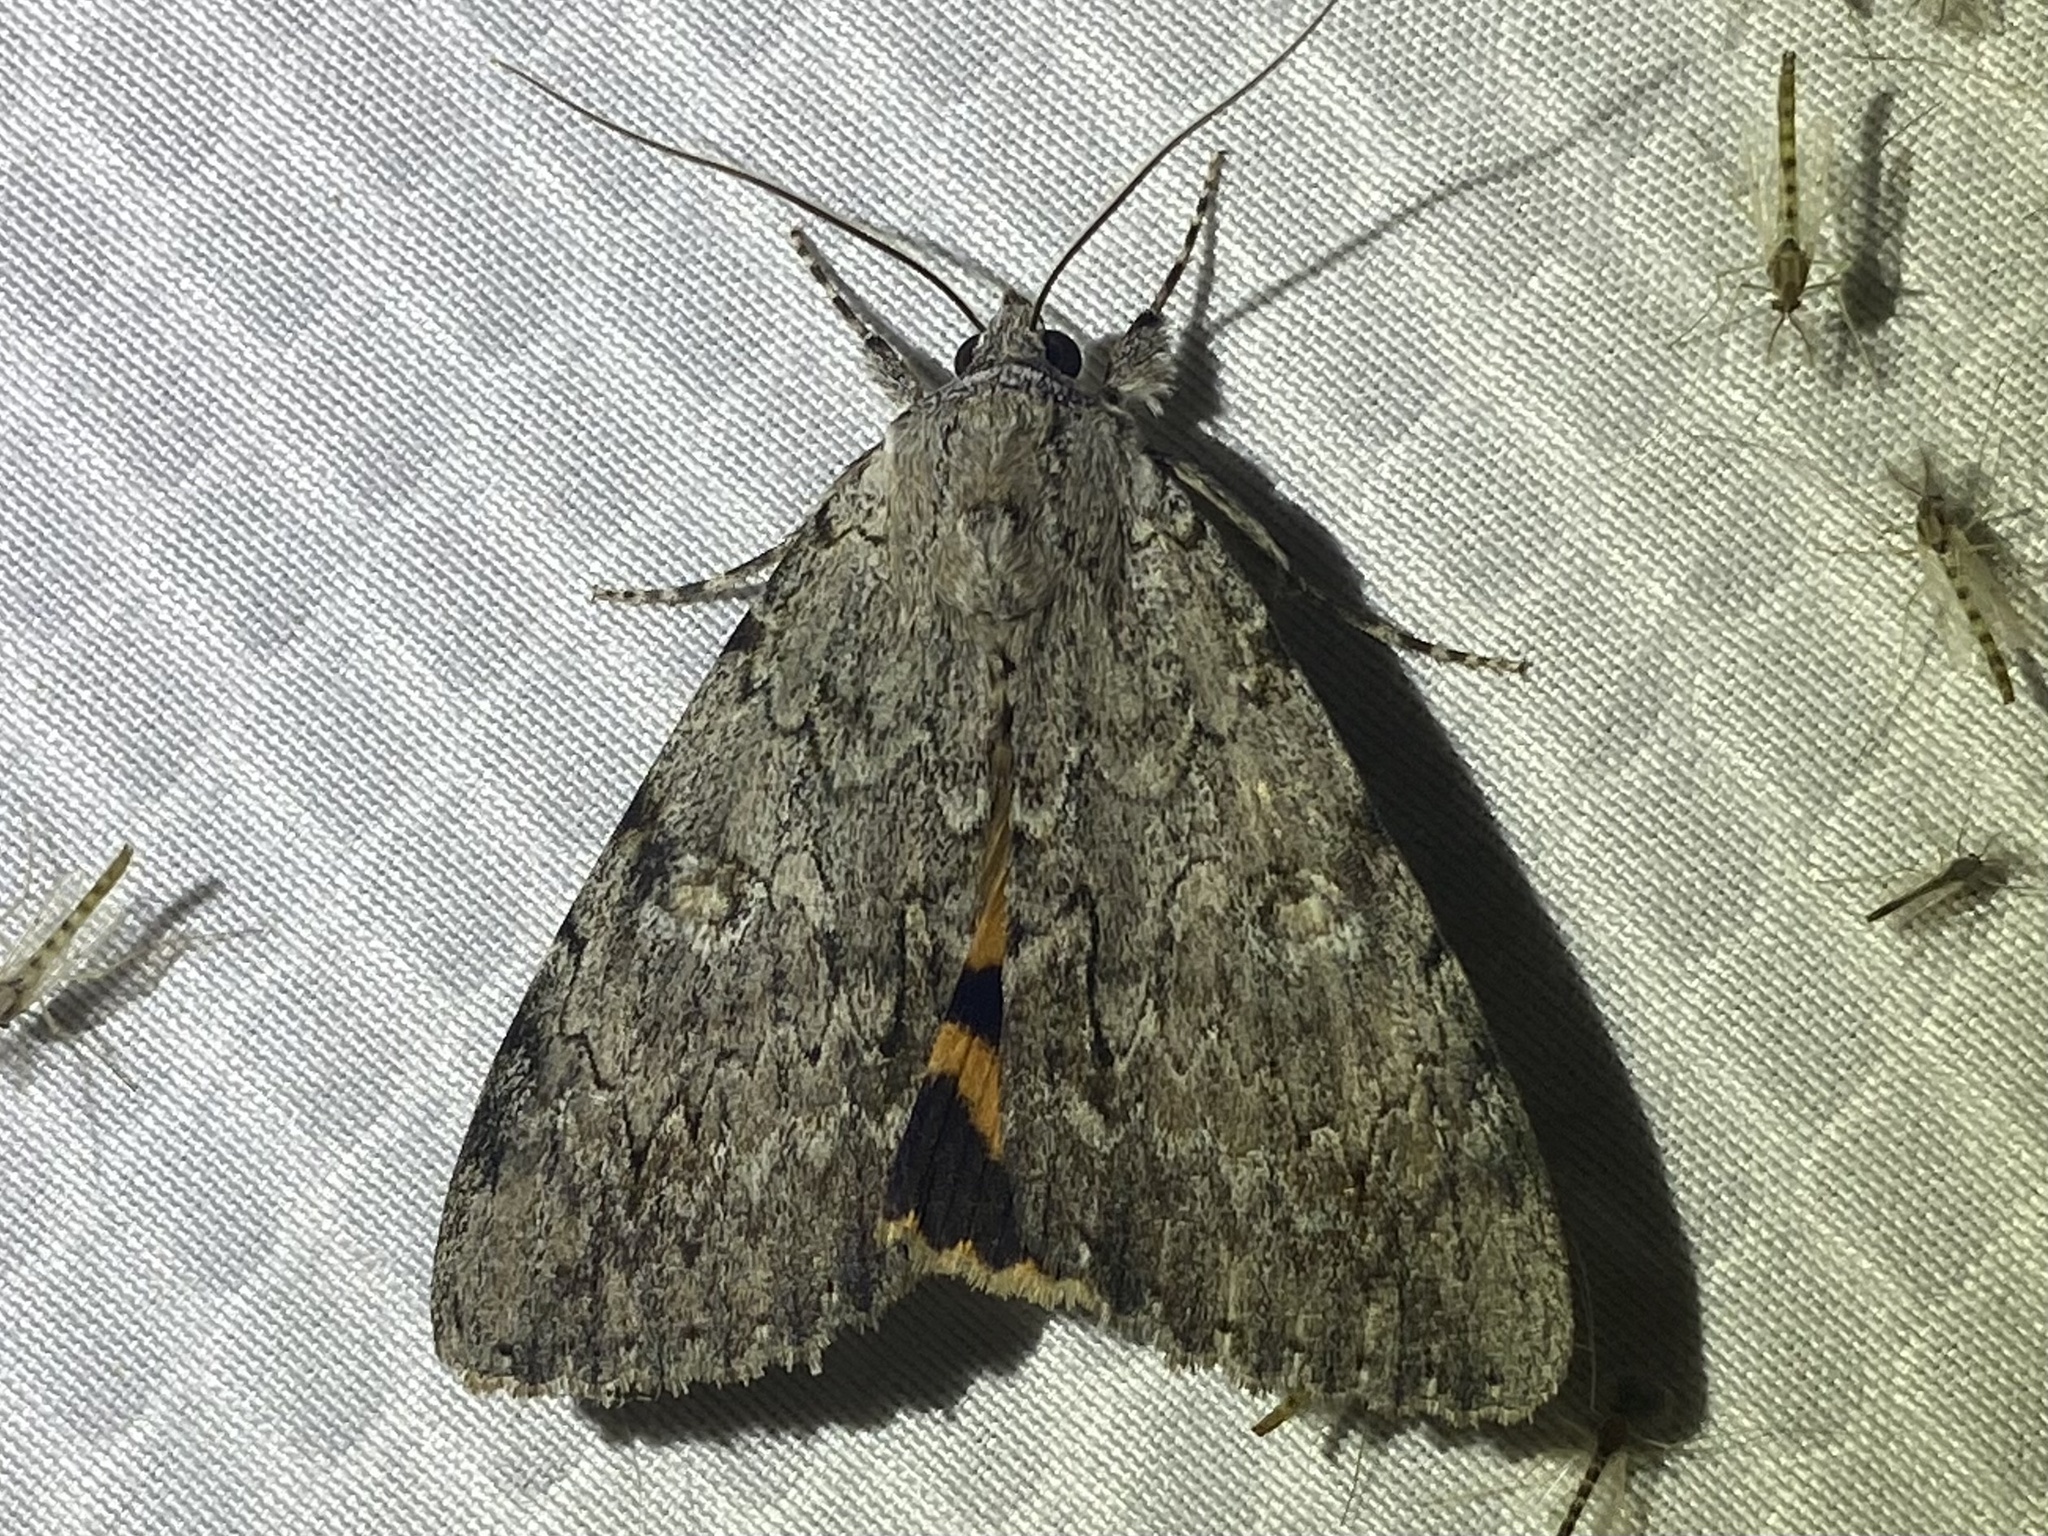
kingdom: Animalia
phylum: Arthropoda
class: Insecta
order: Lepidoptera
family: Erebidae
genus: Catocala
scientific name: Catocala habilis
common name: Habilis underwing
